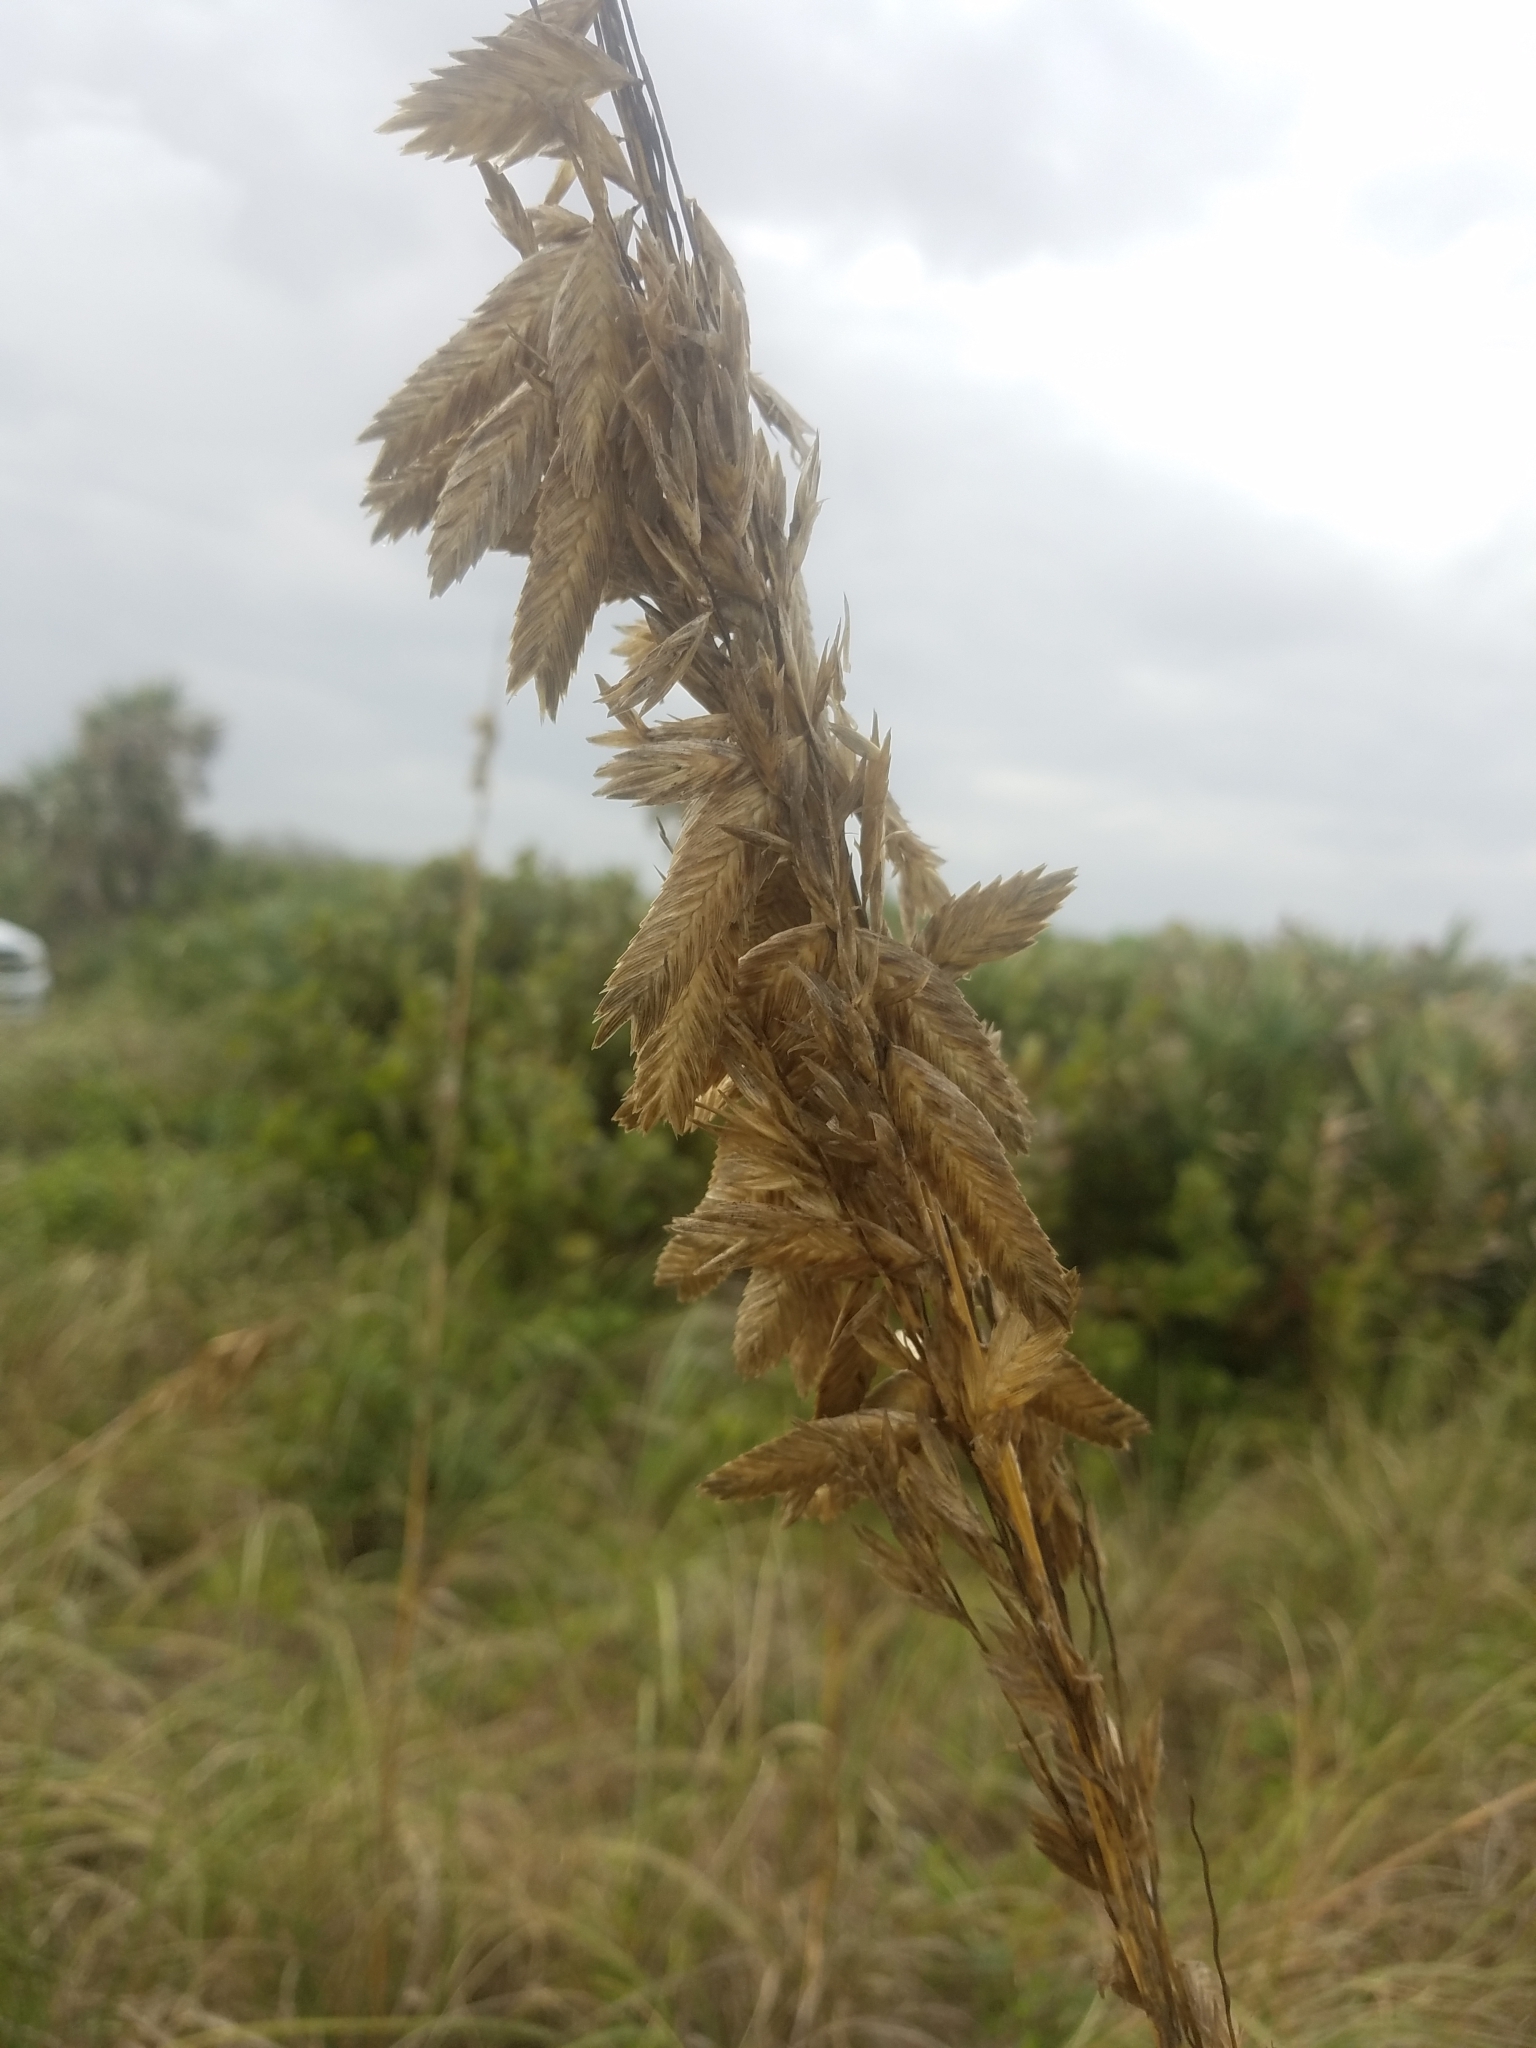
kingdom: Plantae
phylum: Tracheophyta
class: Liliopsida
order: Poales
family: Poaceae
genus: Uniola
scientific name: Uniola paniculata
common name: Seaside-oats
